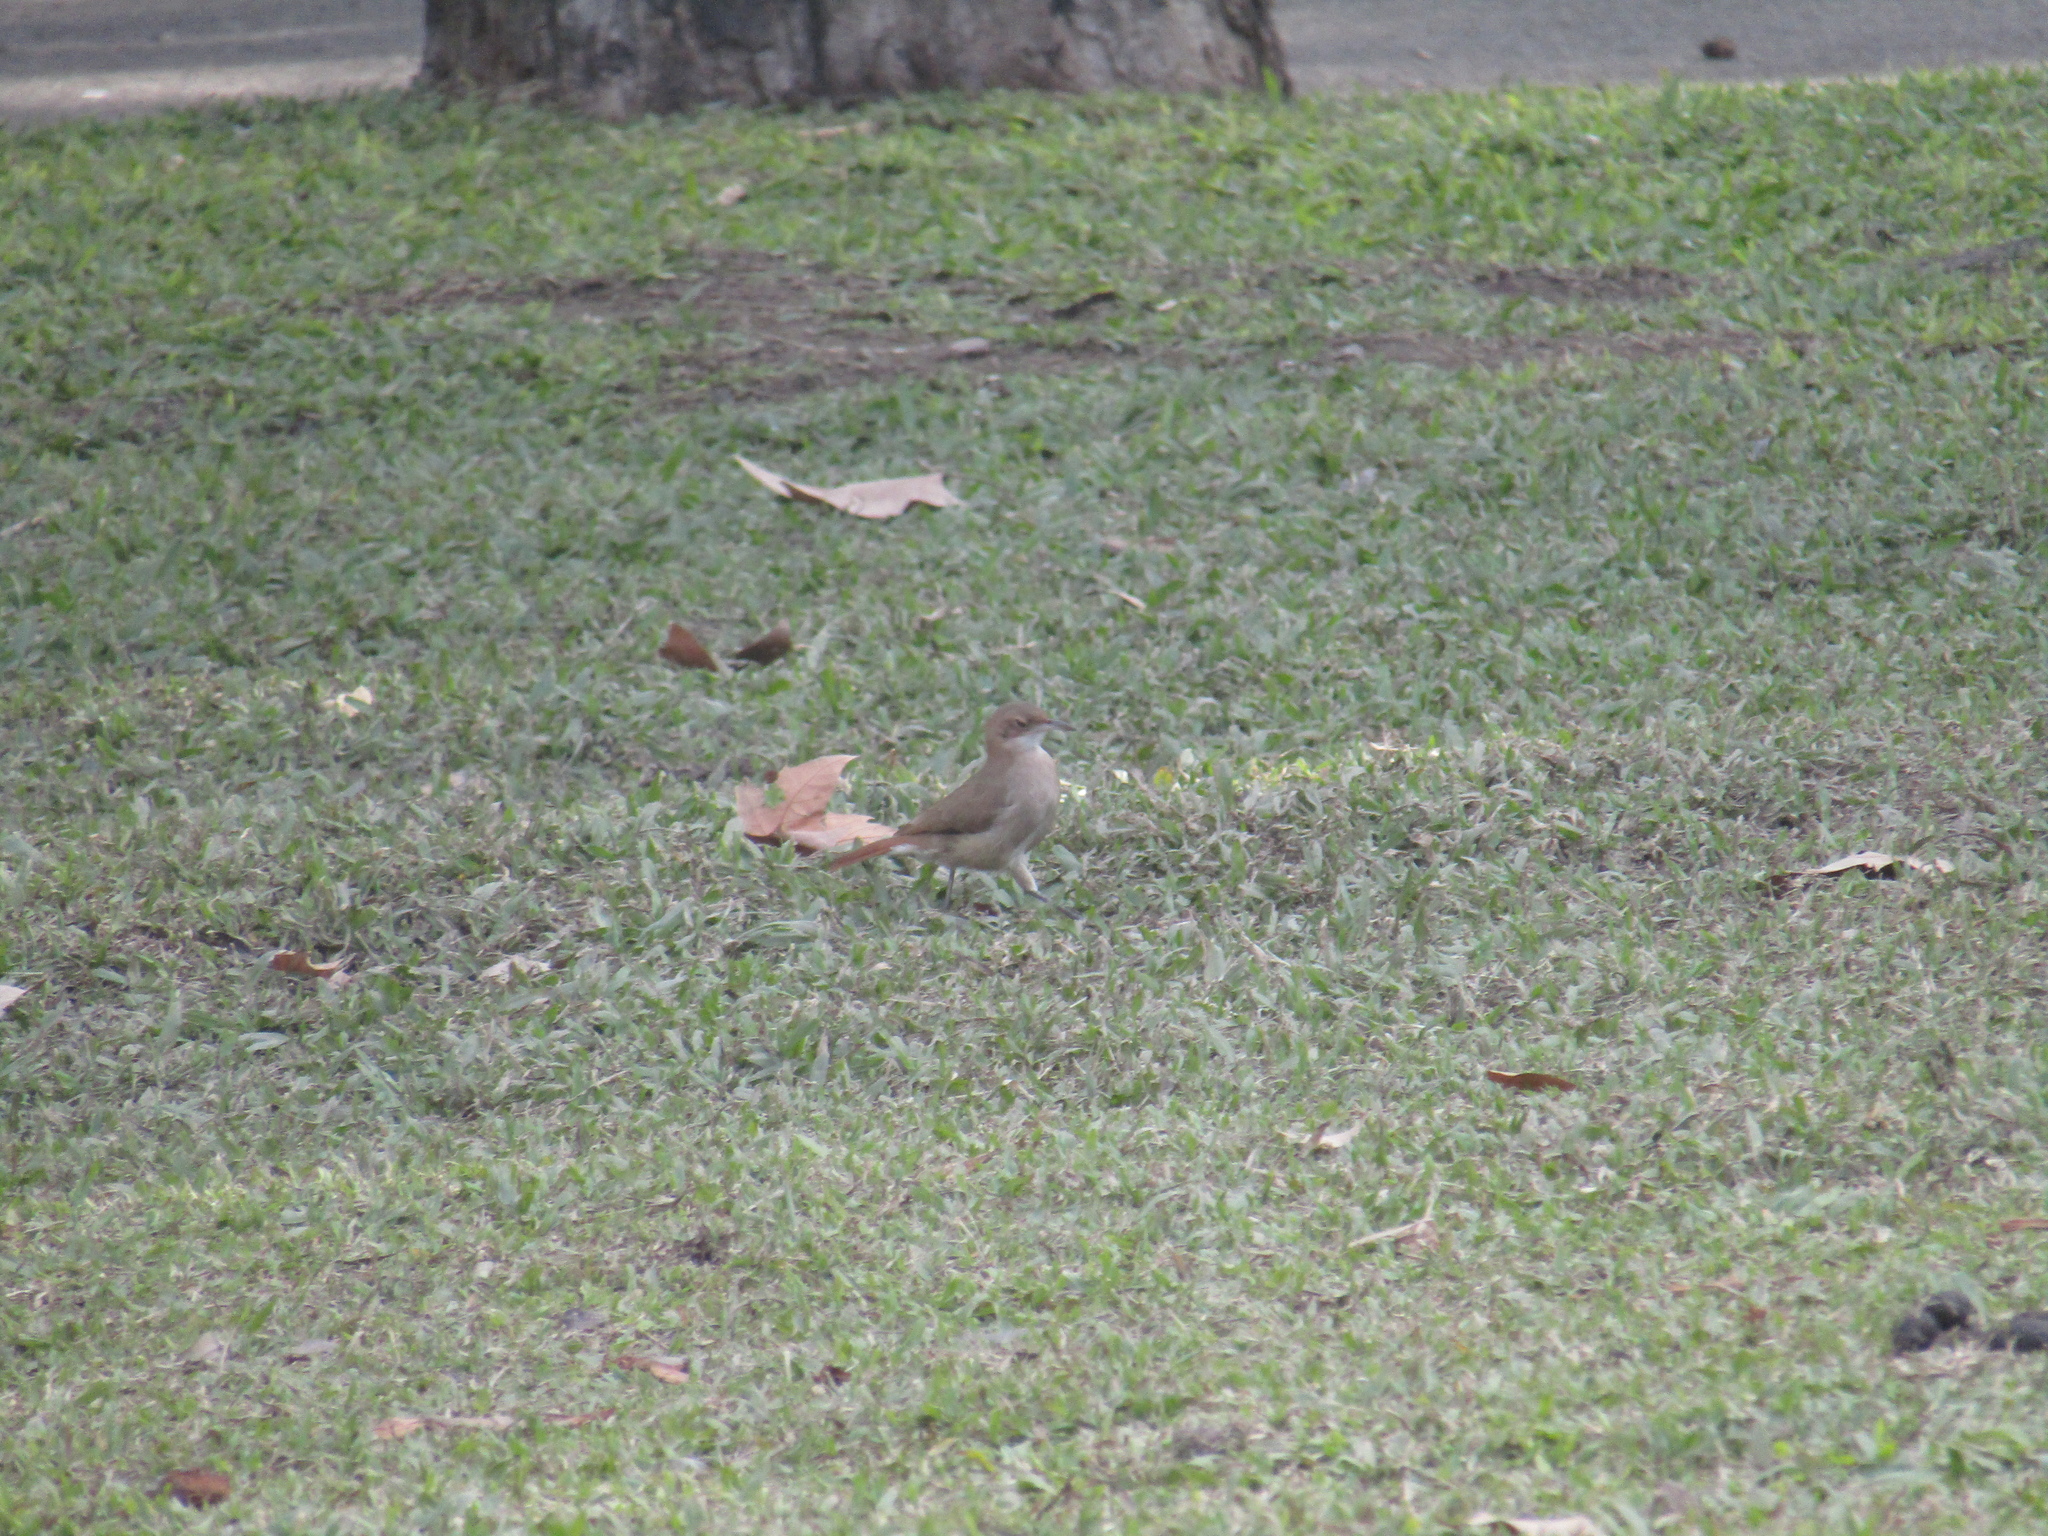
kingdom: Animalia
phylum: Chordata
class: Aves
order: Passeriformes
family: Furnariidae
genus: Furnarius
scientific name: Furnarius rufus
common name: Rufous hornero
